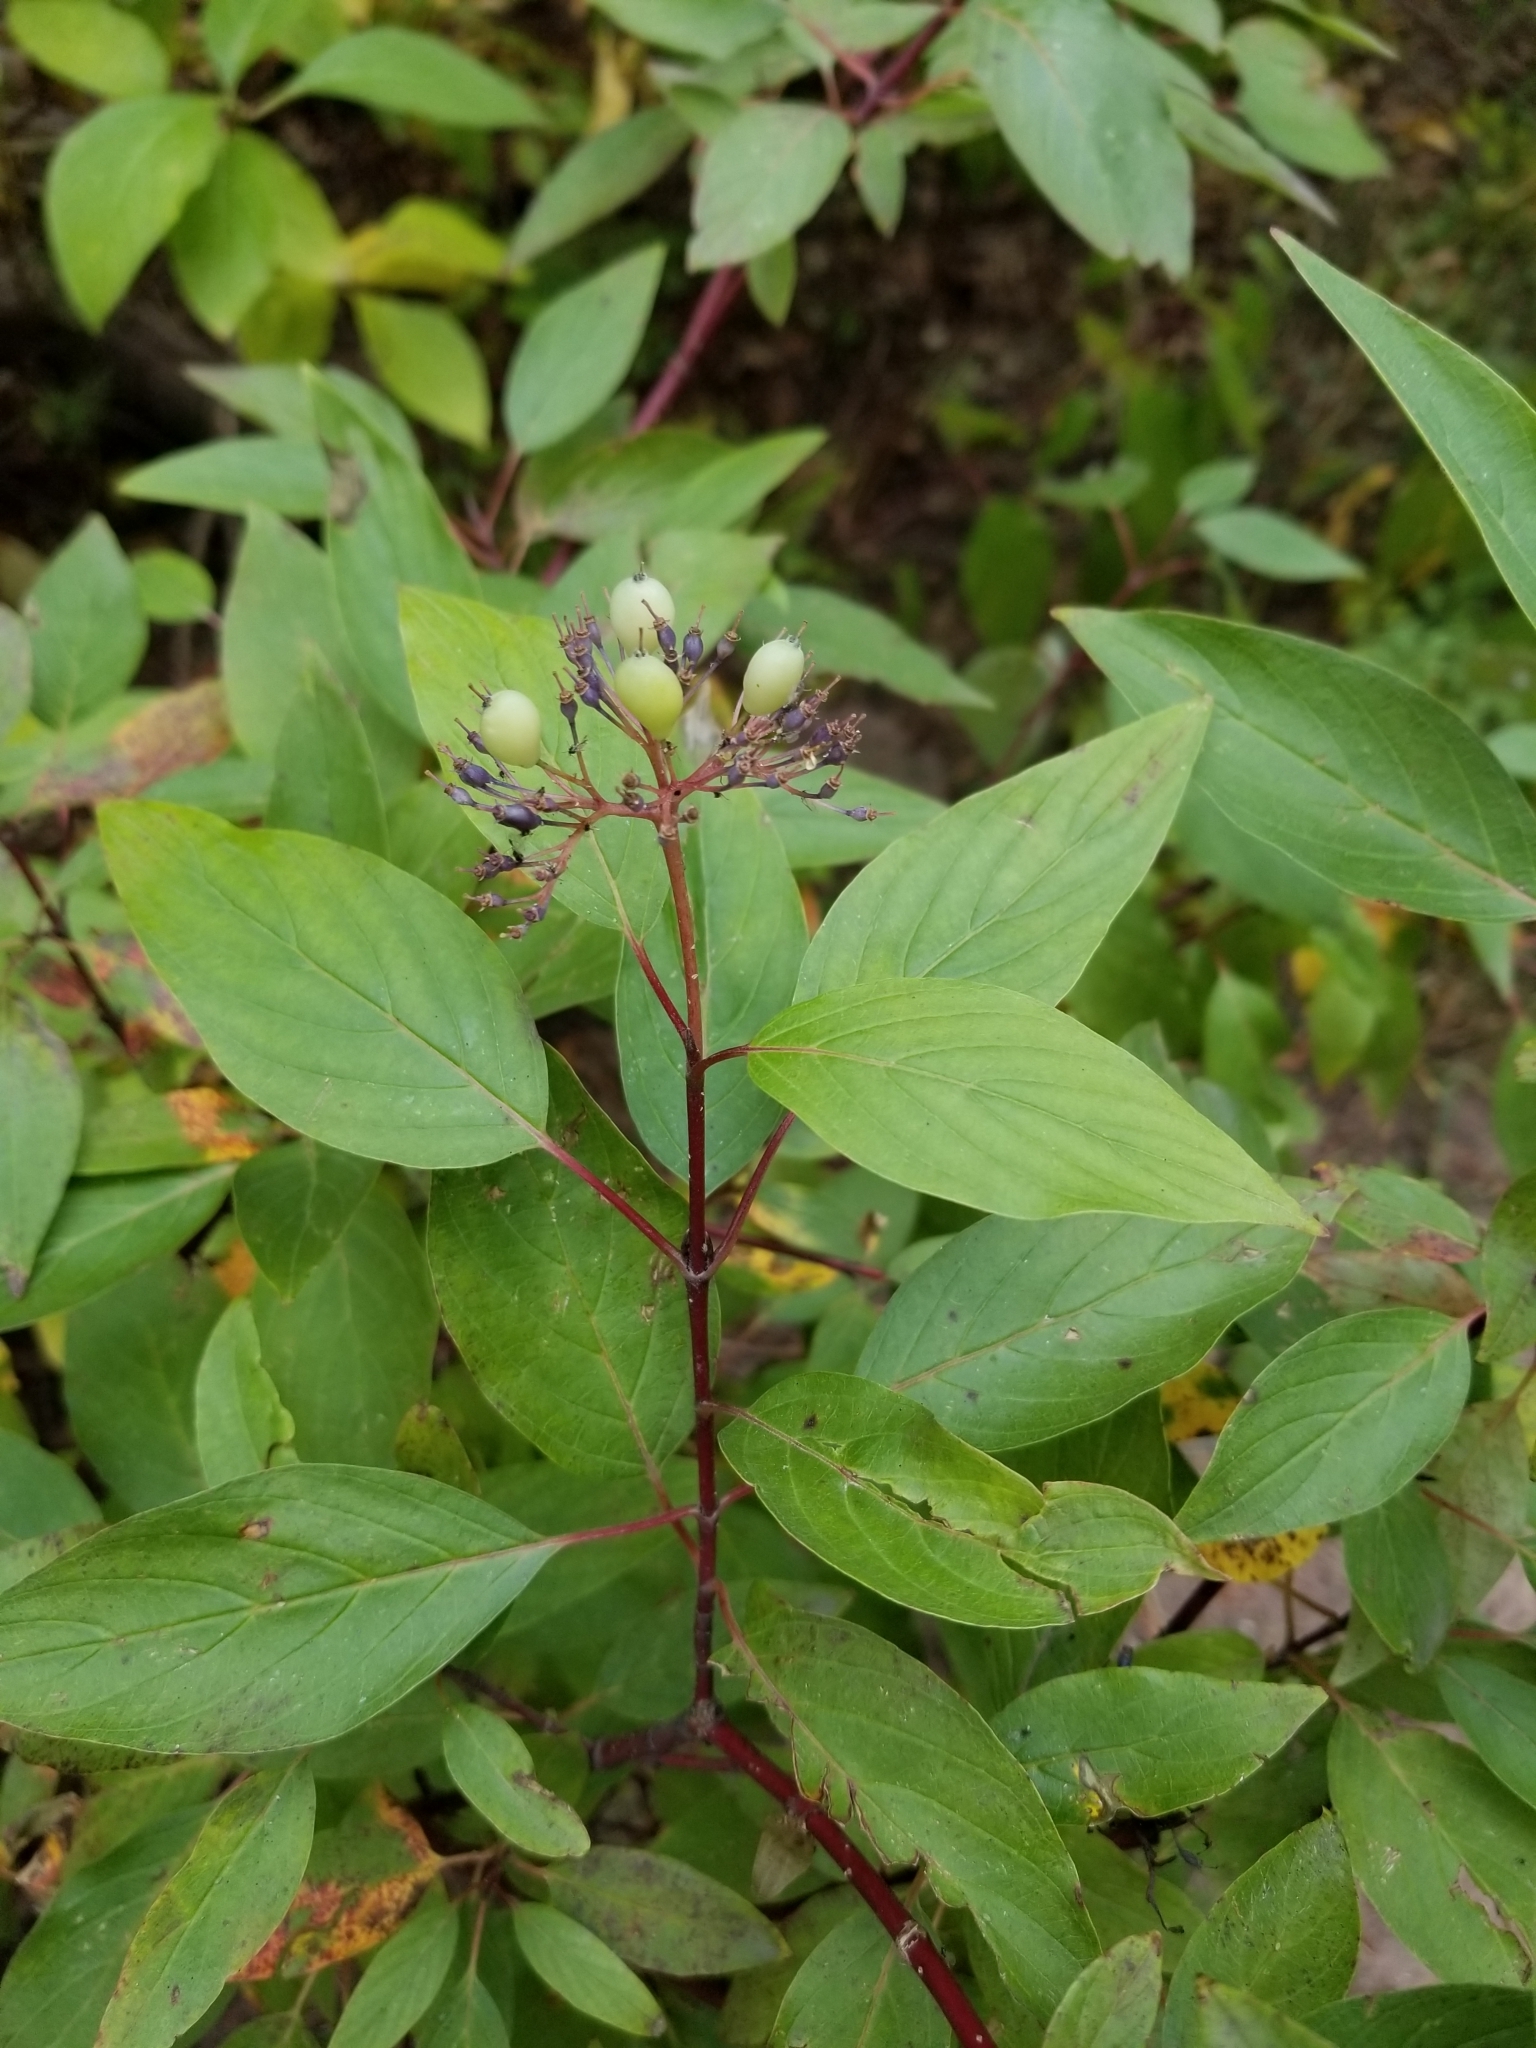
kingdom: Plantae
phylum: Tracheophyta
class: Magnoliopsida
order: Cornales
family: Cornaceae
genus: Cornus
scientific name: Cornus sericea
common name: Red-osier dogwood
